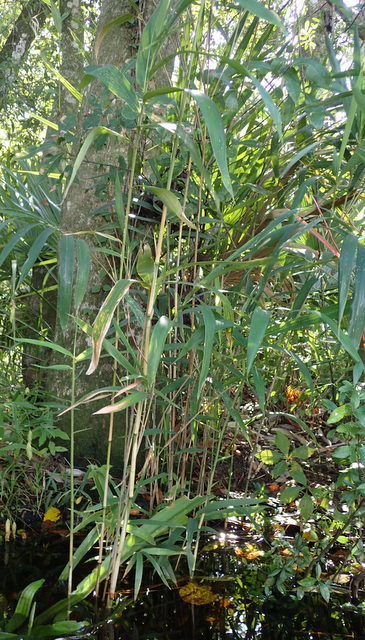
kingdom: Plantae
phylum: Tracheophyta
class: Liliopsida
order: Poales
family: Poaceae
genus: Arundinaria
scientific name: Arundinaria tecta
